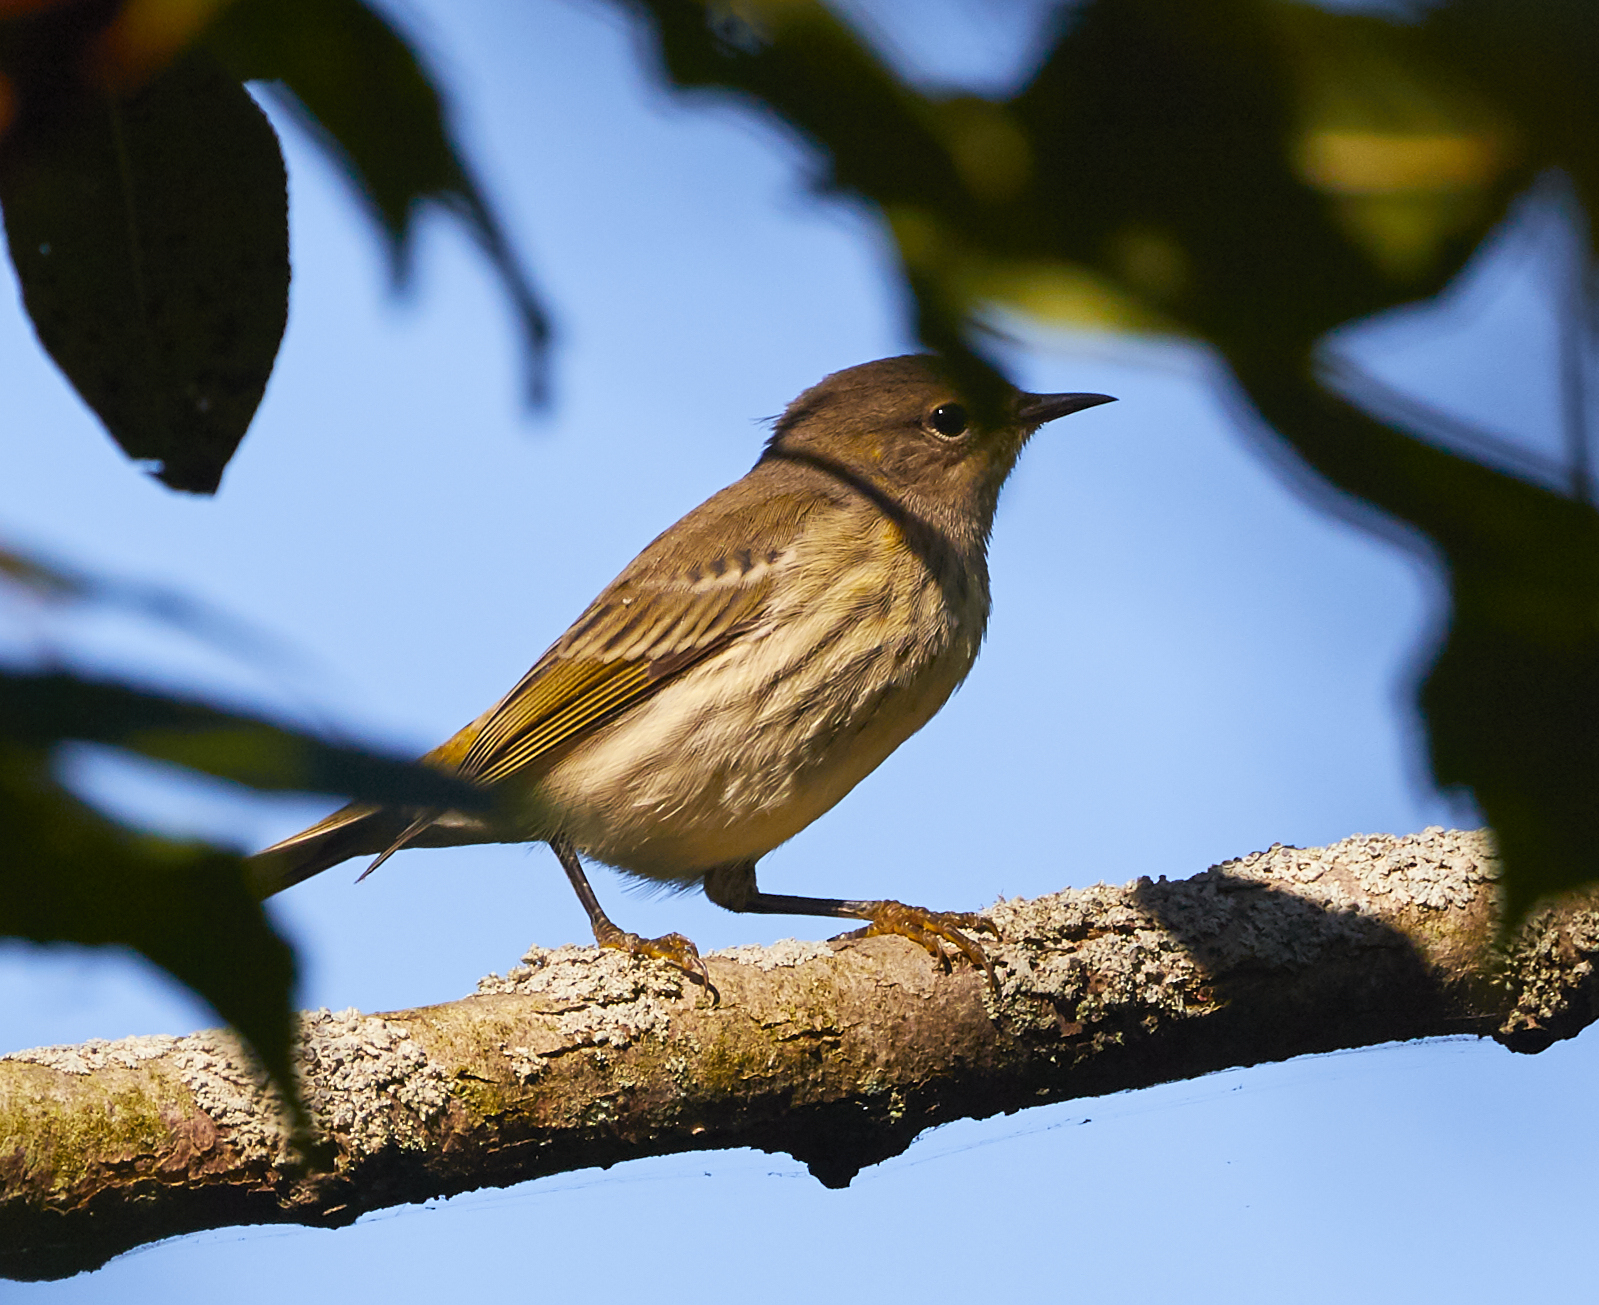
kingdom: Animalia
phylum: Chordata
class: Aves
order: Passeriformes
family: Parulidae
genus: Setophaga
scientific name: Setophaga tigrina
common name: Cape may warbler
